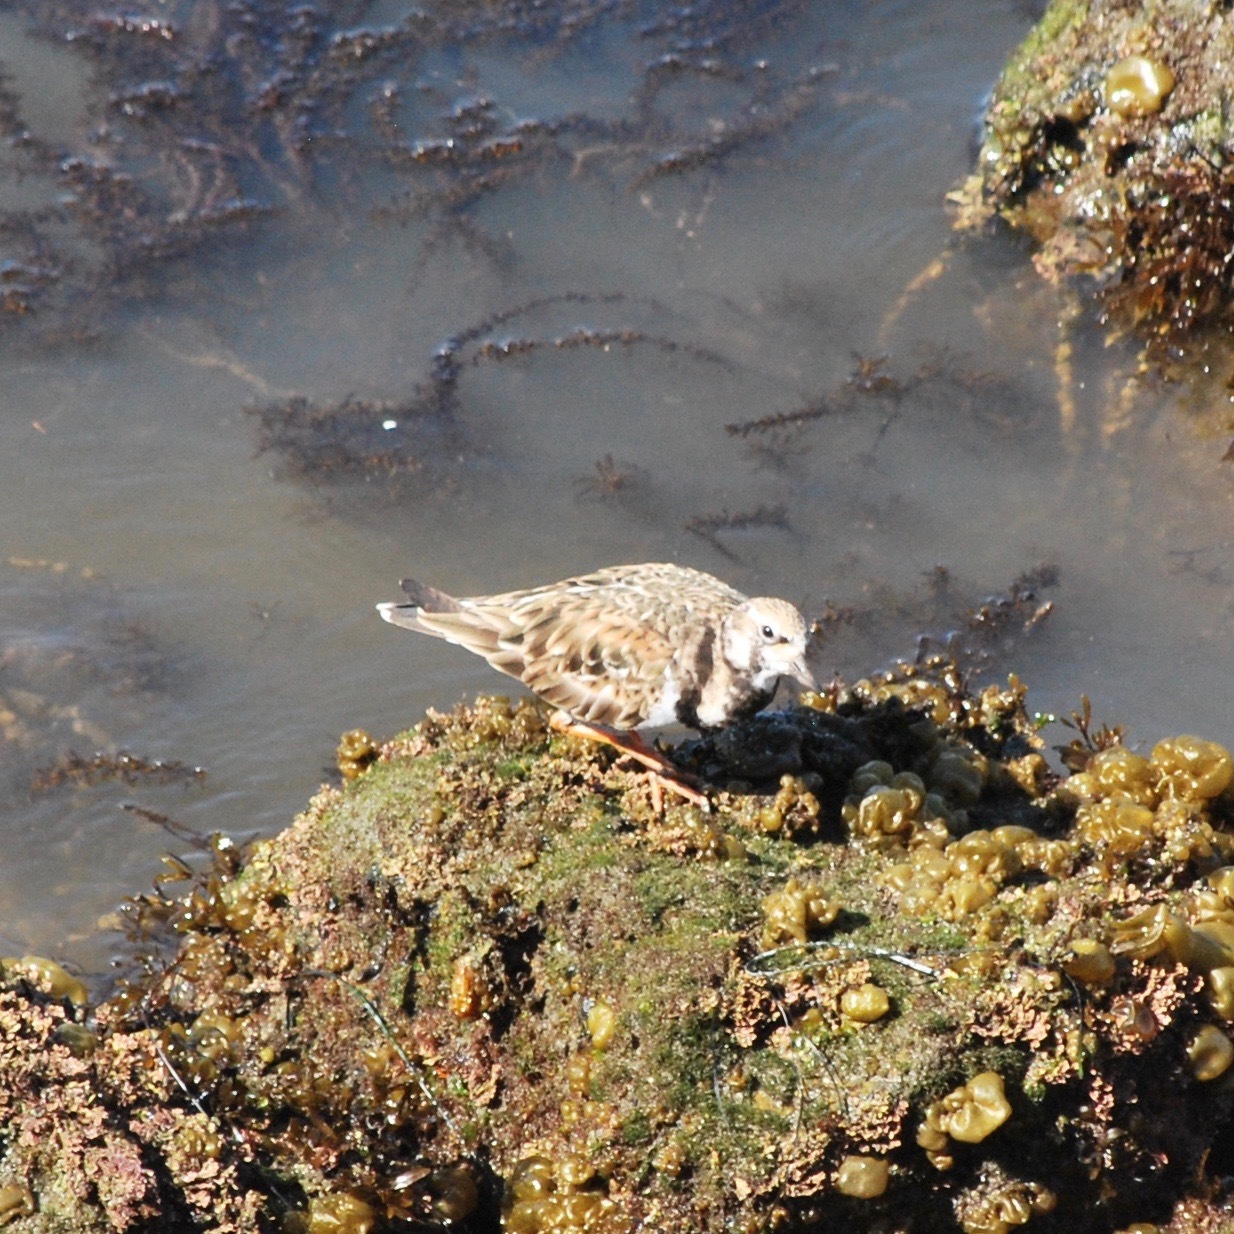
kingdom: Animalia
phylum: Chordata
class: Aves
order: Charadriiformes
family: Scolopacidae
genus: Arenaria
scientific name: Arenaria interpres
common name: Ruddy turnstone
